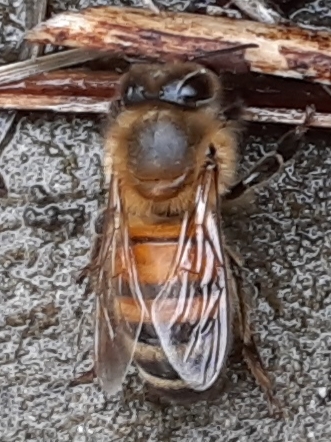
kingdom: Animalia
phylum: Arthropoda
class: Insecta
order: Hymenoptera
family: Apidae
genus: Apis
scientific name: Apis mellifera
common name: Honey bee
